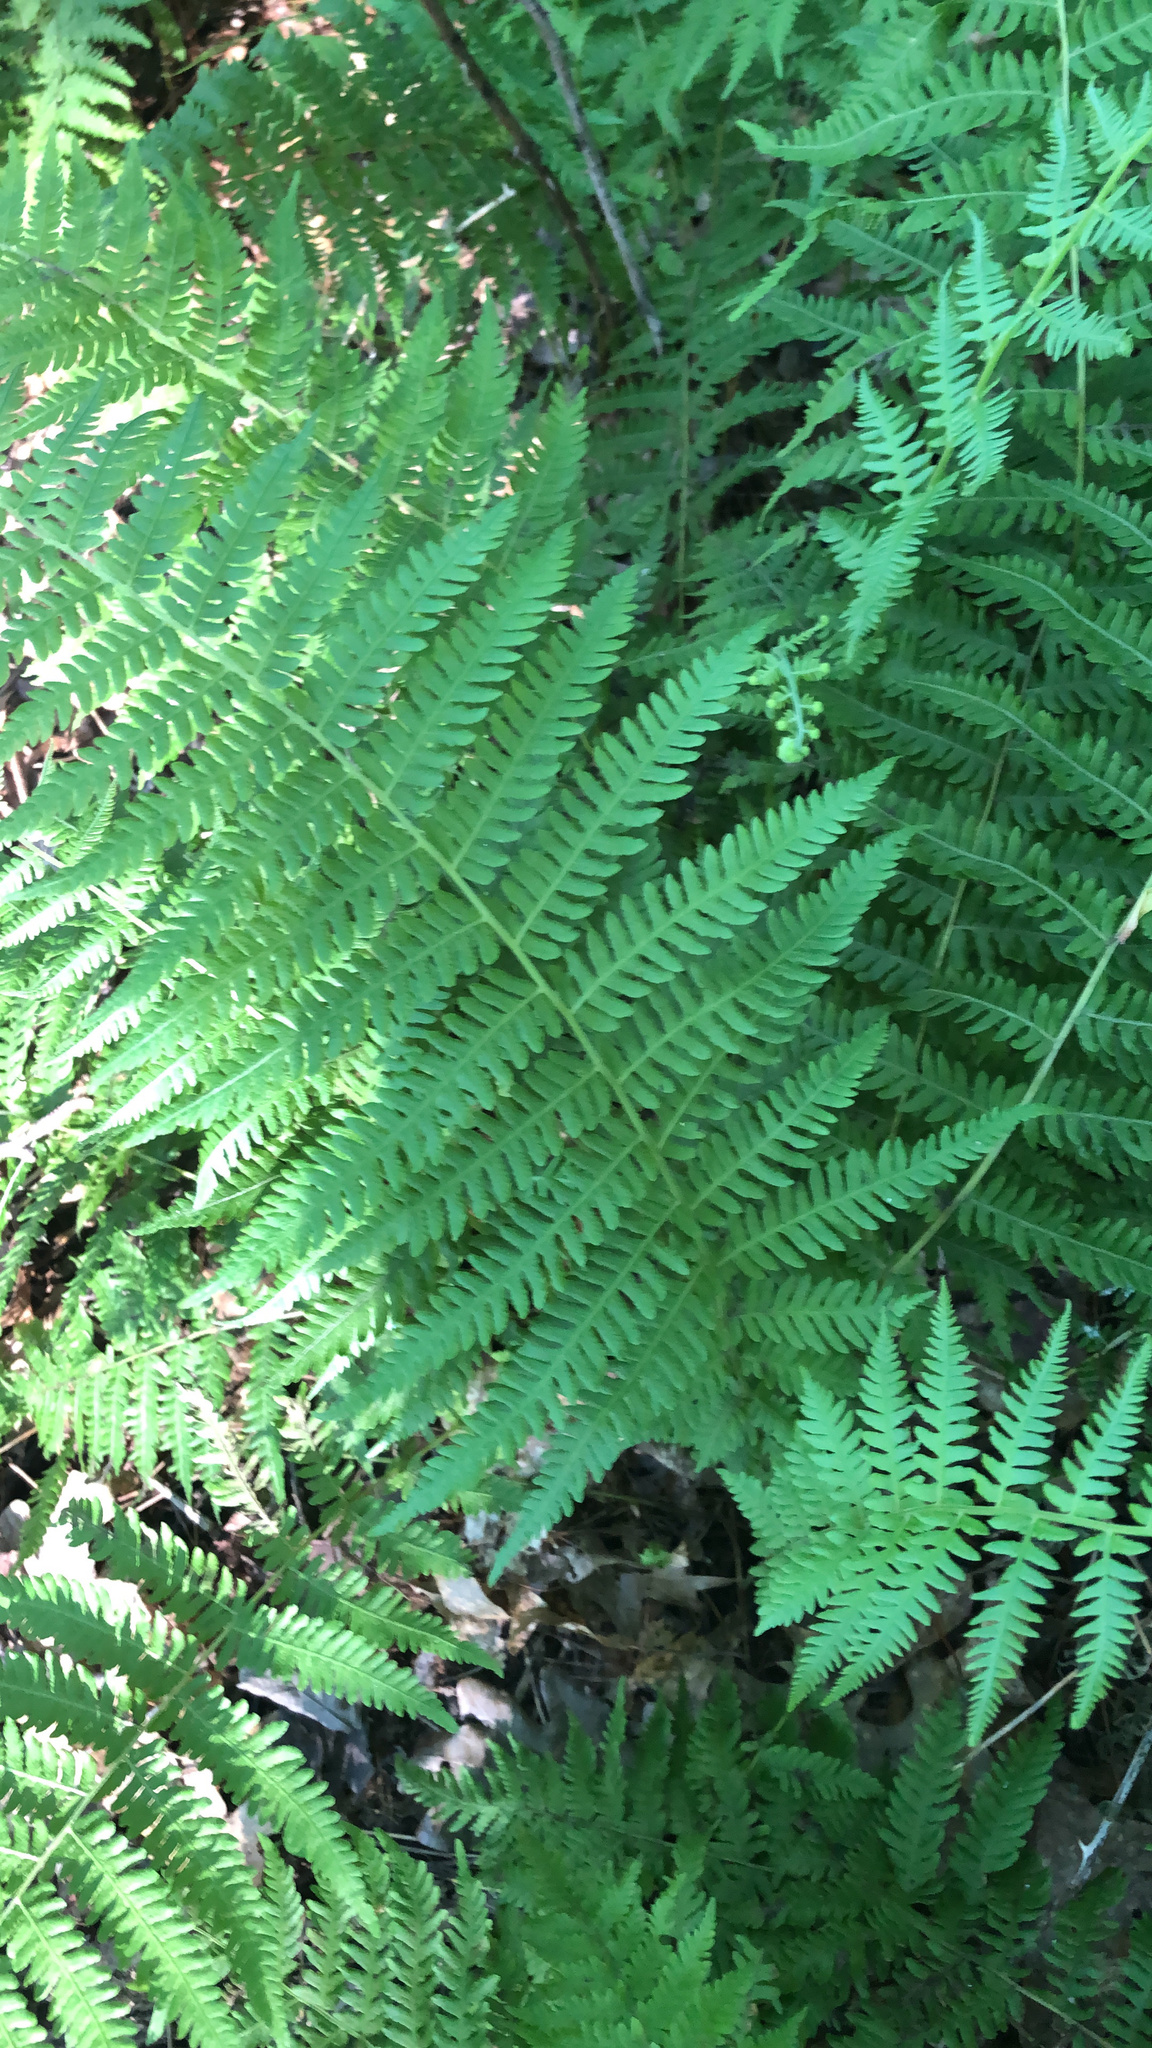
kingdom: Plantae
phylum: Tracheophyta
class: Polypodiopsida
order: Polypodiales
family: Thelypteridaceae
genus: Amauropelta
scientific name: Amauropelta noveboracensis
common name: New york fern
